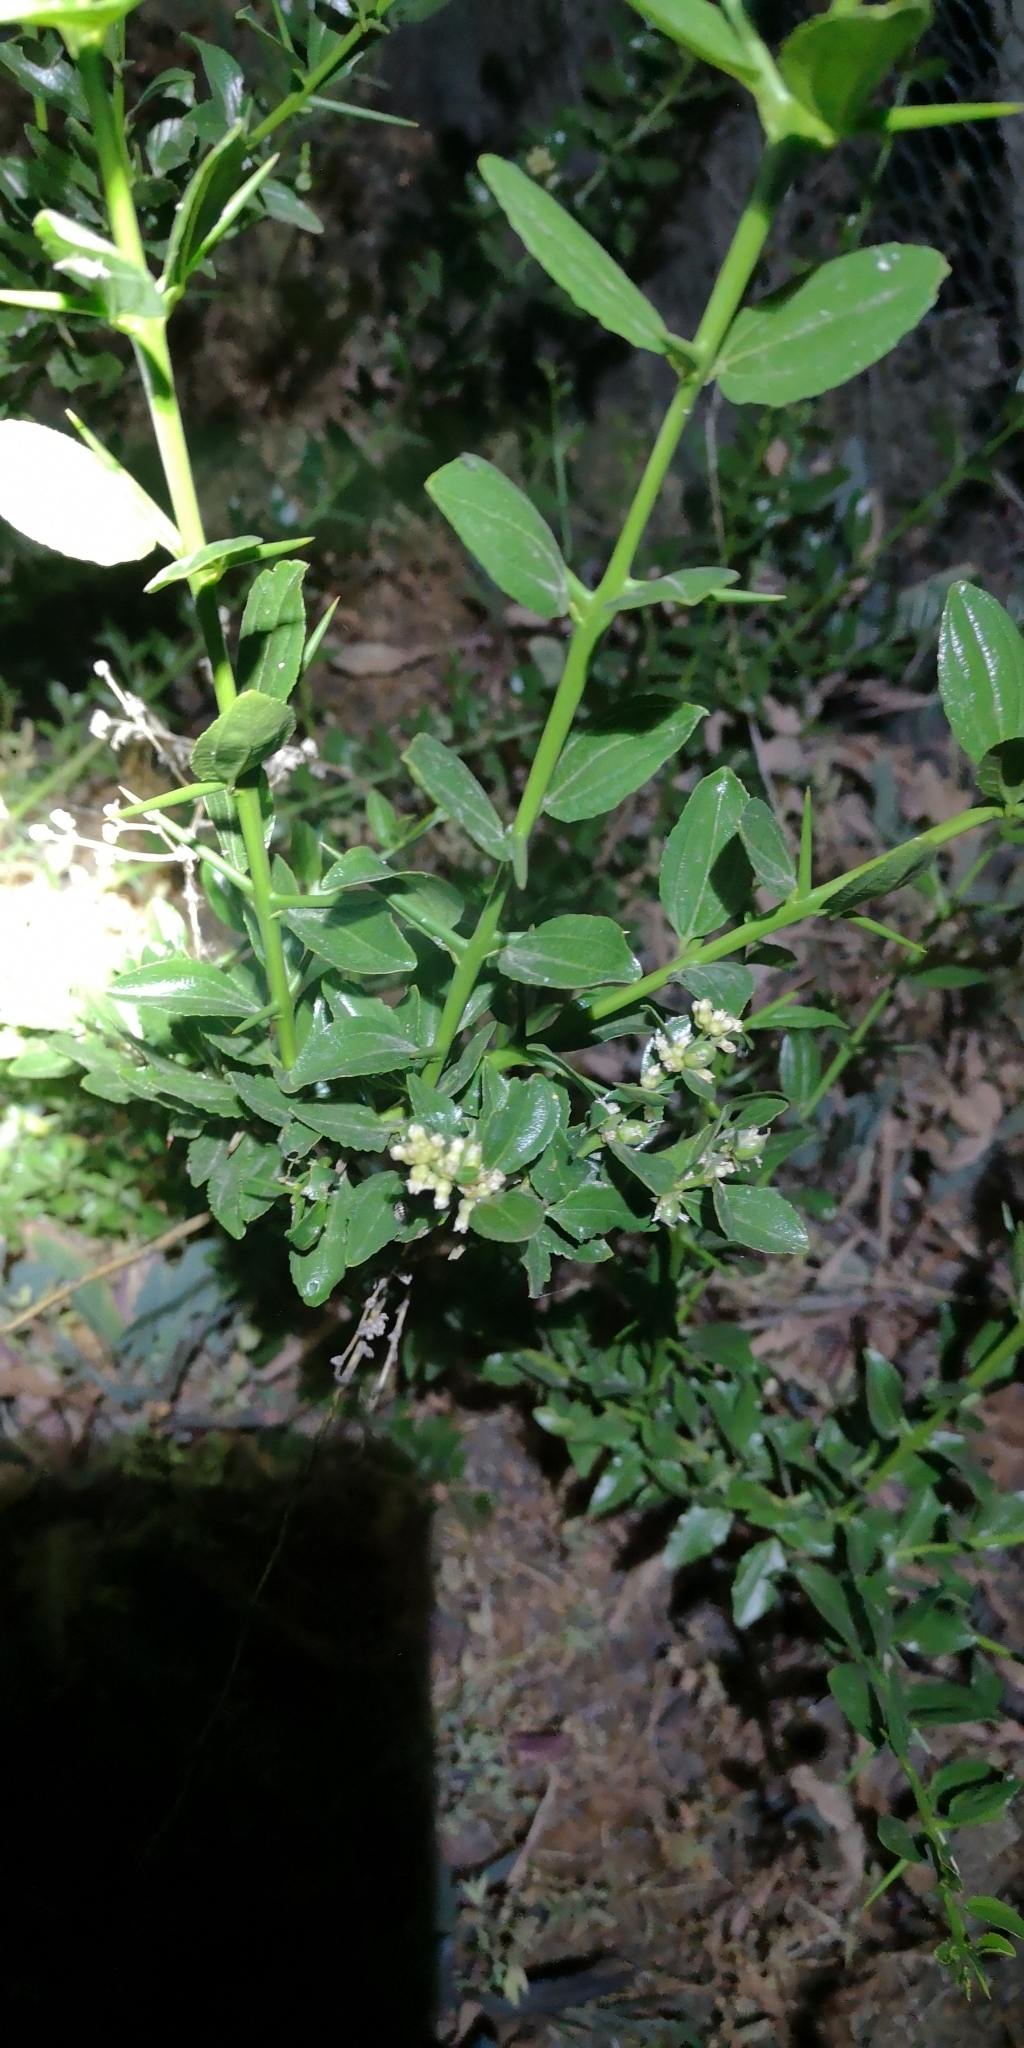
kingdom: Plantae
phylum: Tracheophyta
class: Magnoliopsida
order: Rosales
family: Rhamnaceae
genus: Retanilla
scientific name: Retanilla trinervia
